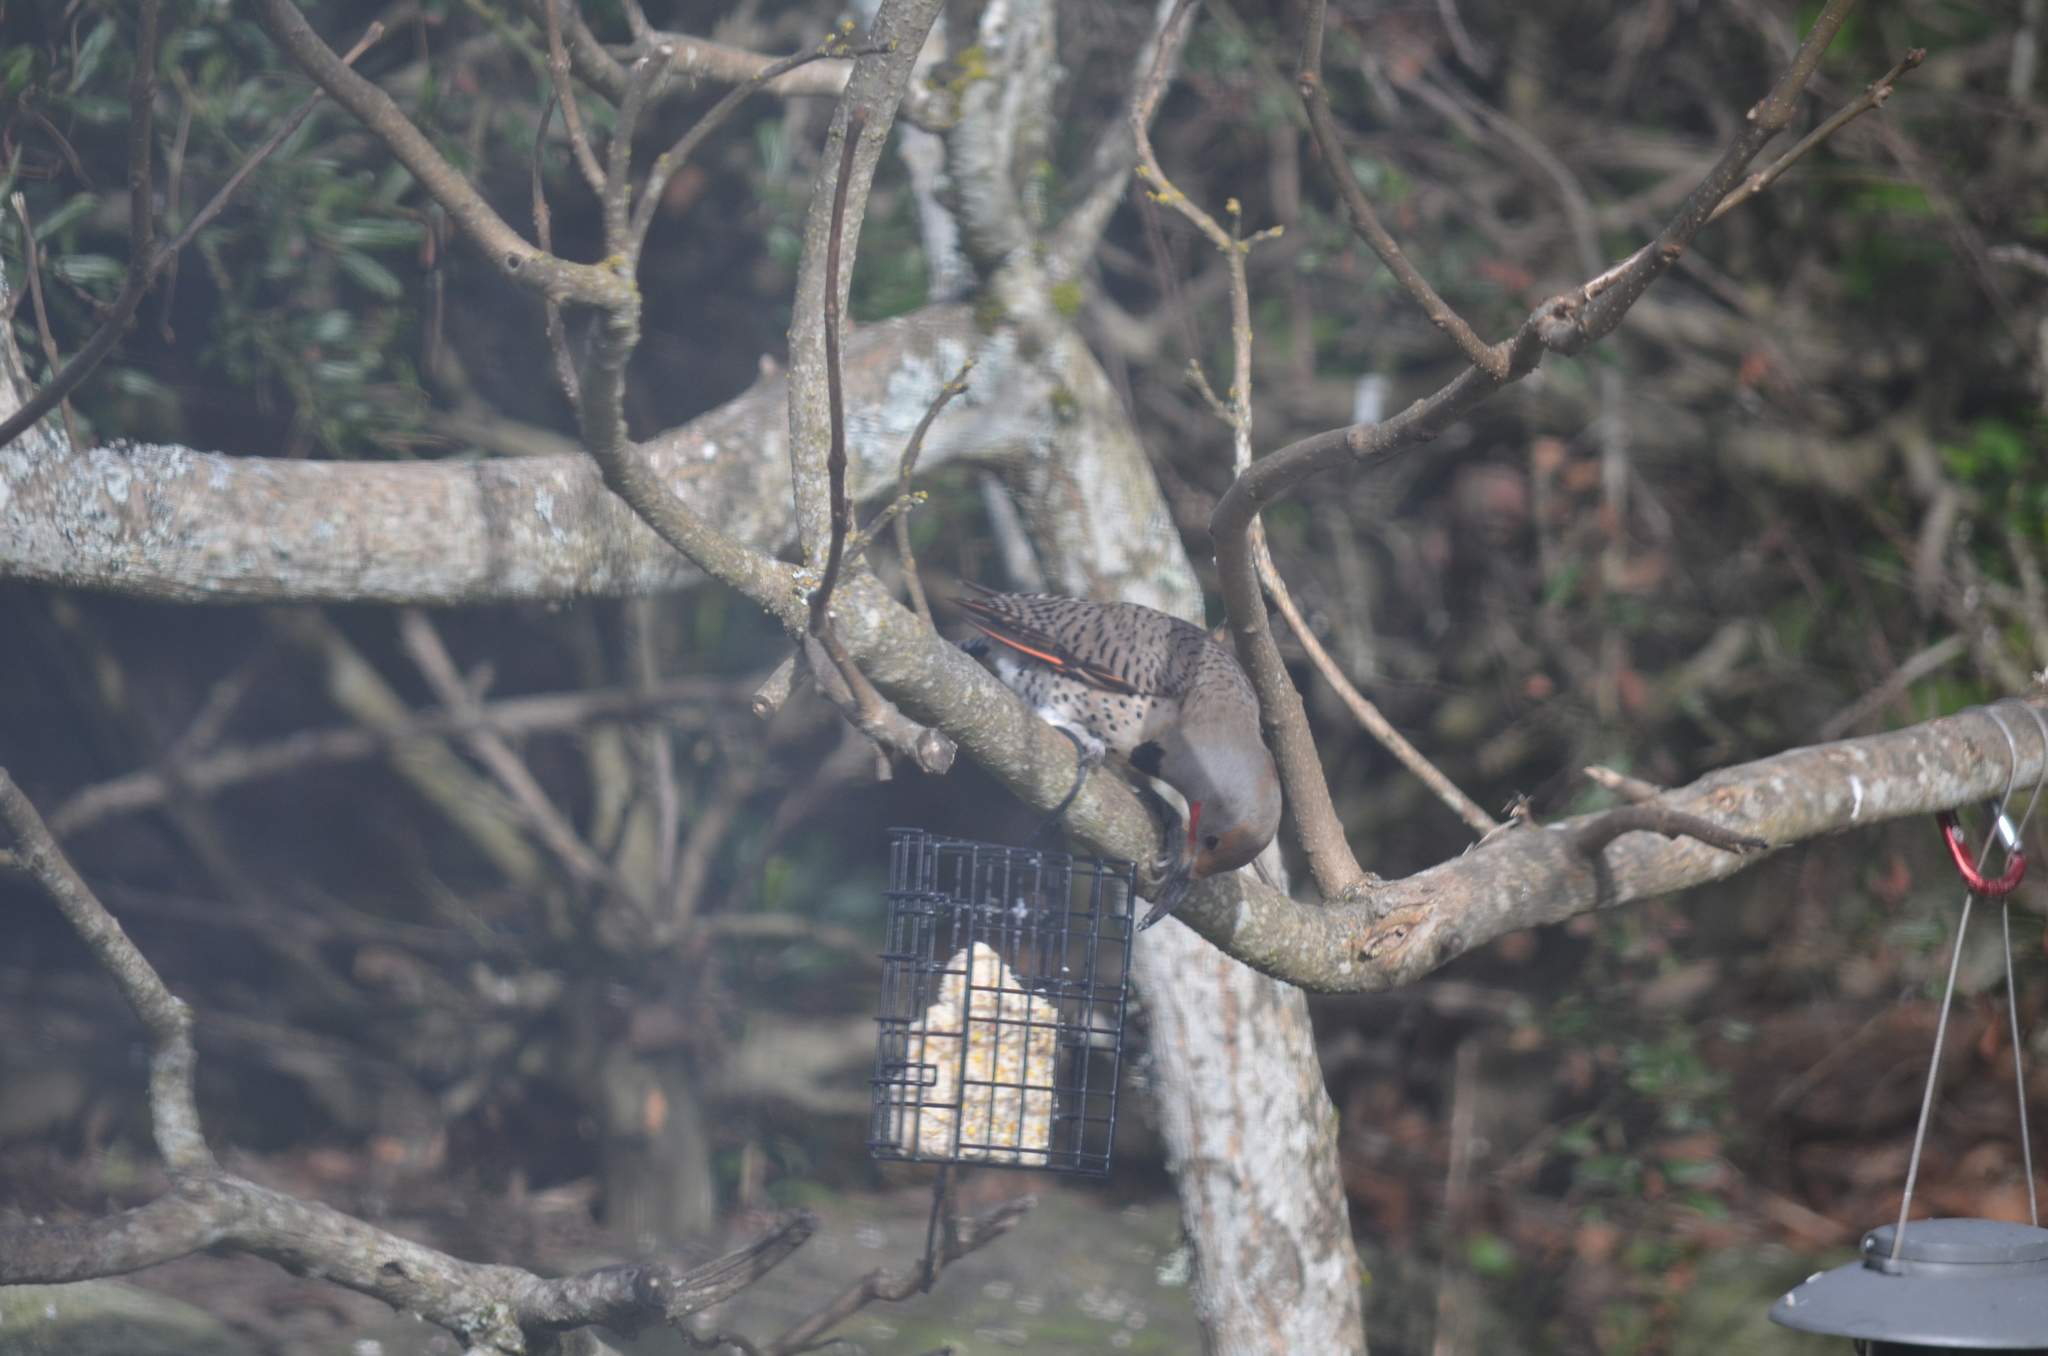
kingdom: Animalia
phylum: Chordata
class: Aves
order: Piciformes
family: Picidae
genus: Colaptes
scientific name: Colaptes auratus
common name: Northern flicker
